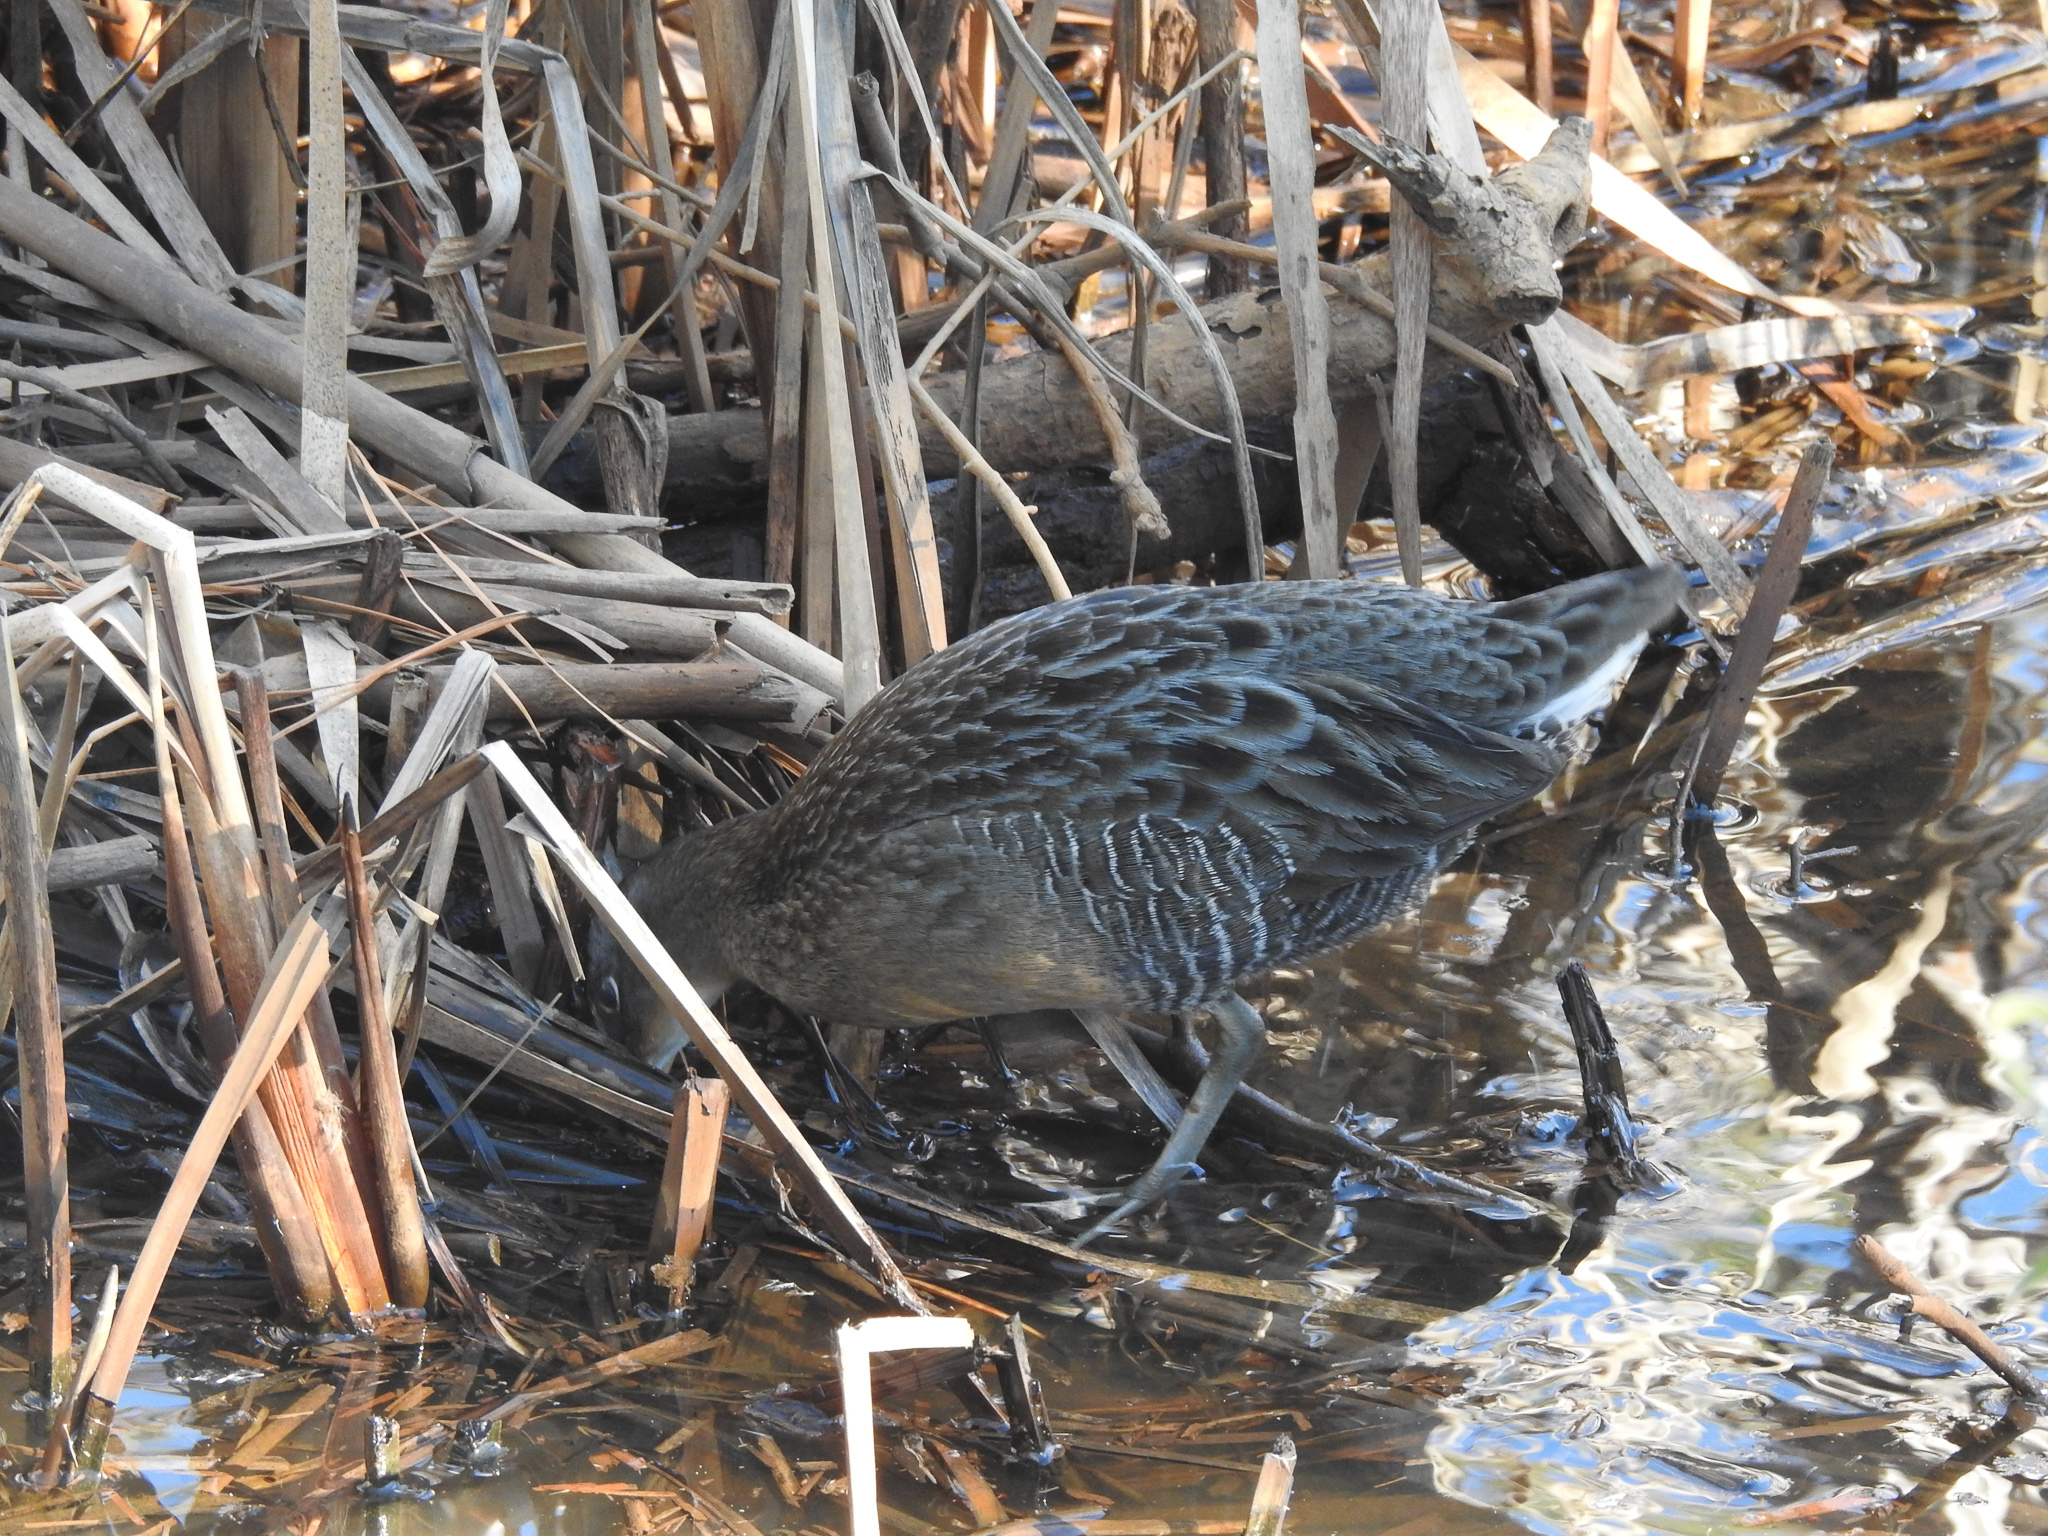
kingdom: Animalia
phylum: Chordata
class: Aves
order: Gruiformes
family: Rallidae
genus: Rallus
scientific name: Rallus crepitans
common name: Clapper rail
